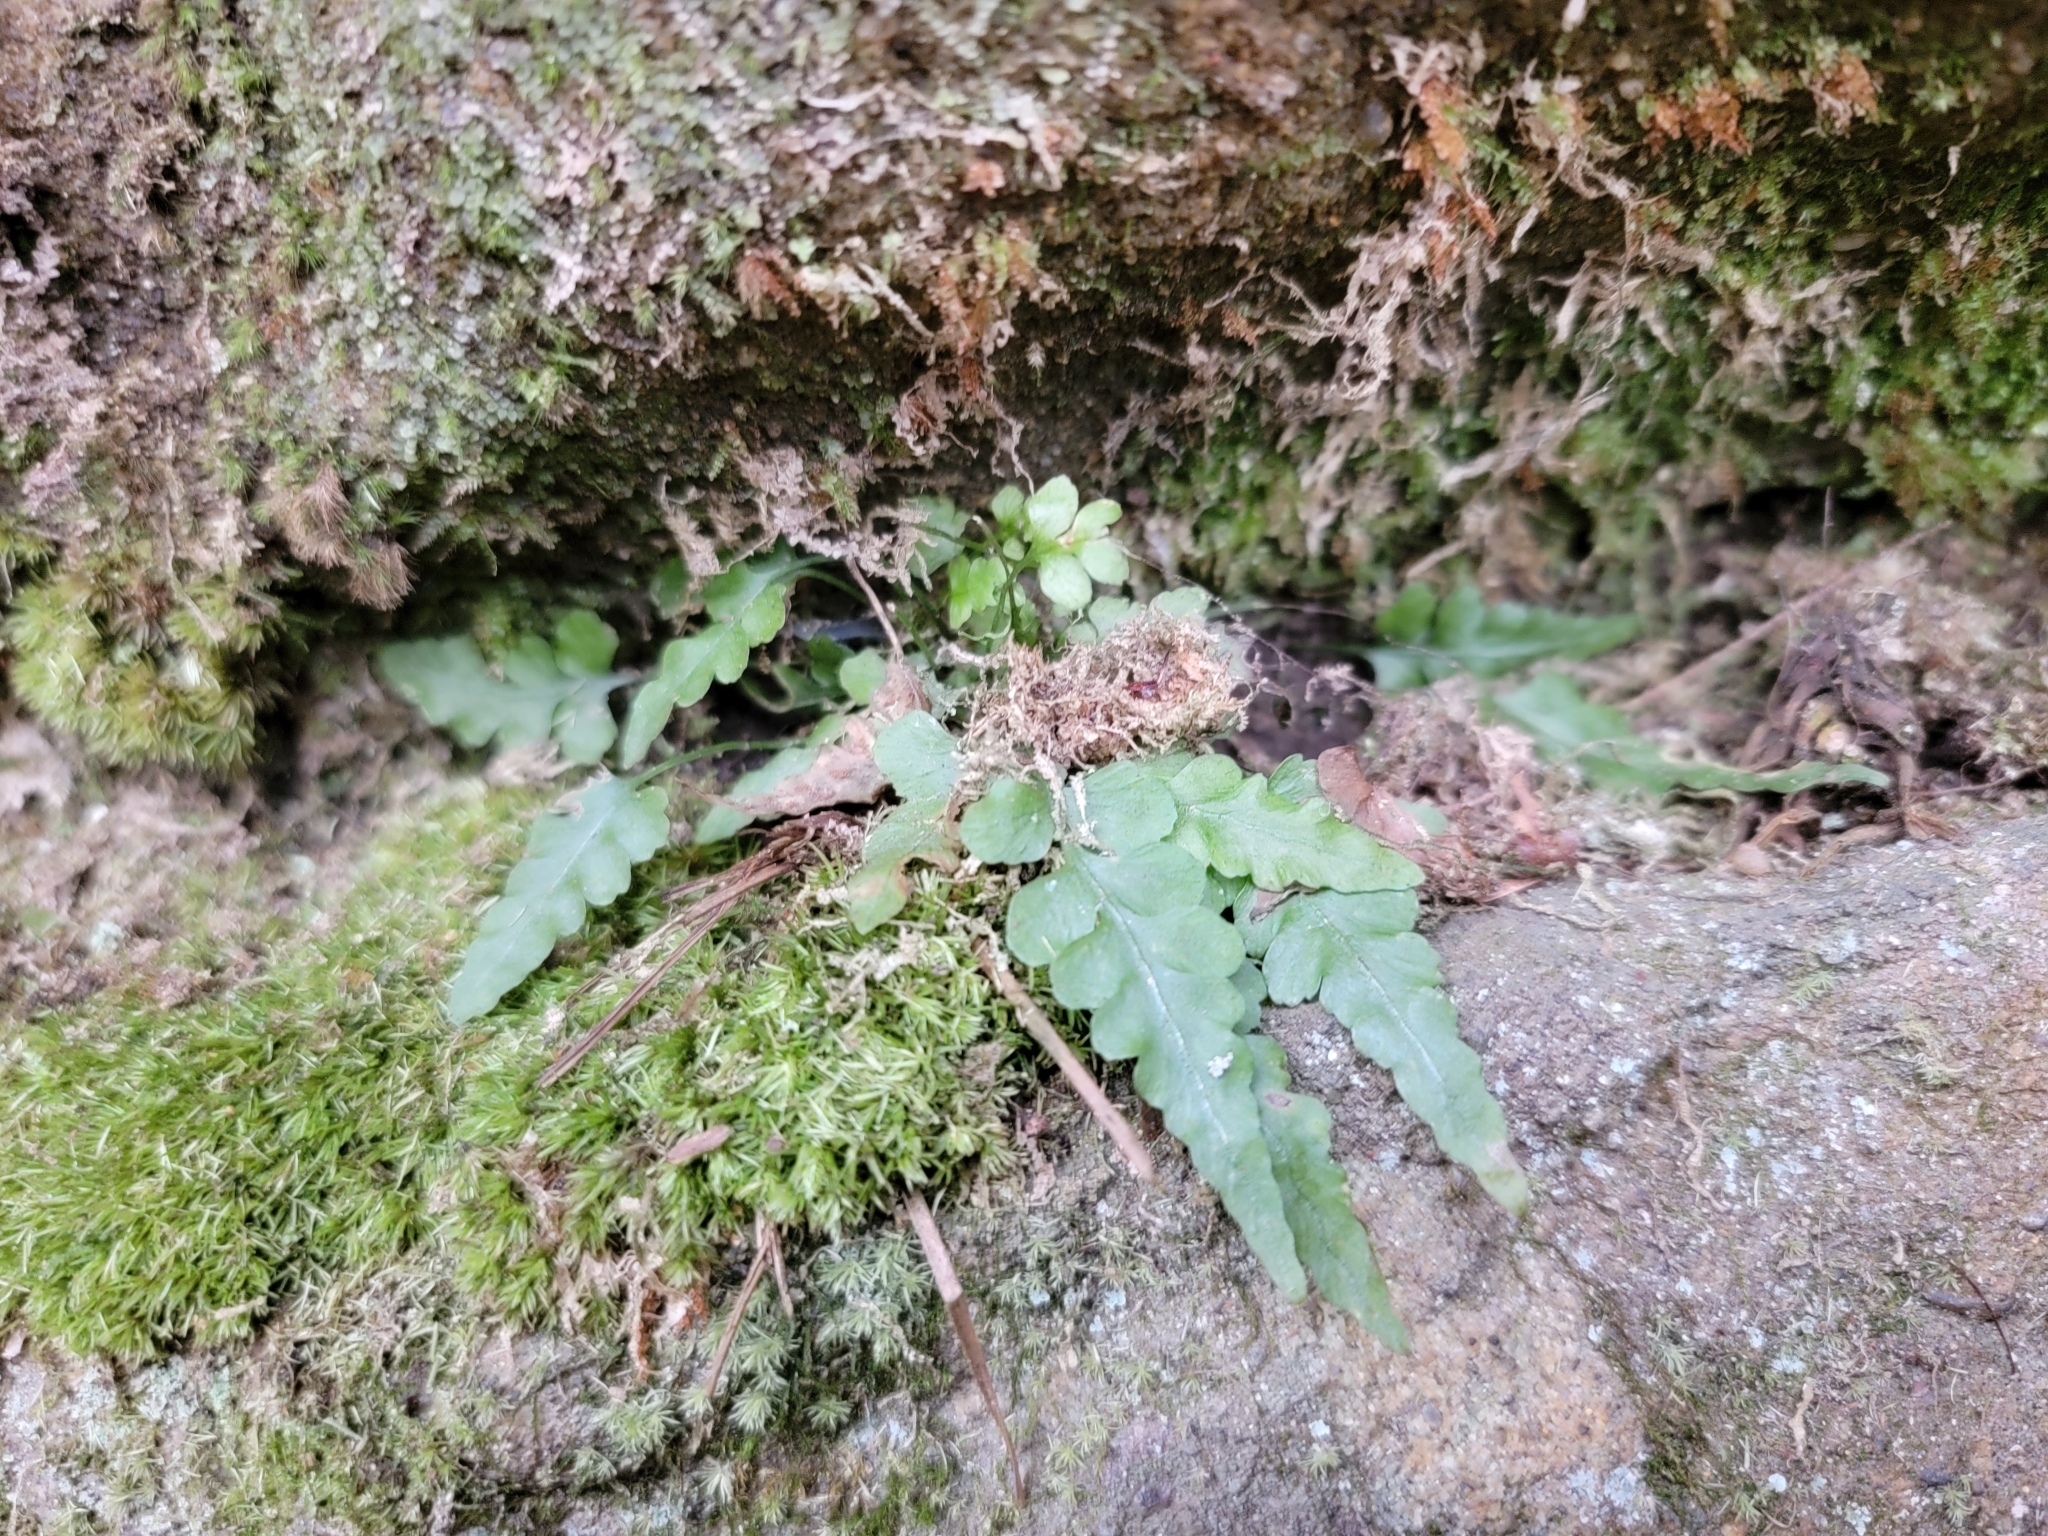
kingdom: Plantae
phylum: Tracheophyta
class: Polypodiopsida
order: Polypodiales
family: Aspleniaceae
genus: Asplenium
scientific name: Asplenium pinnatifidum
